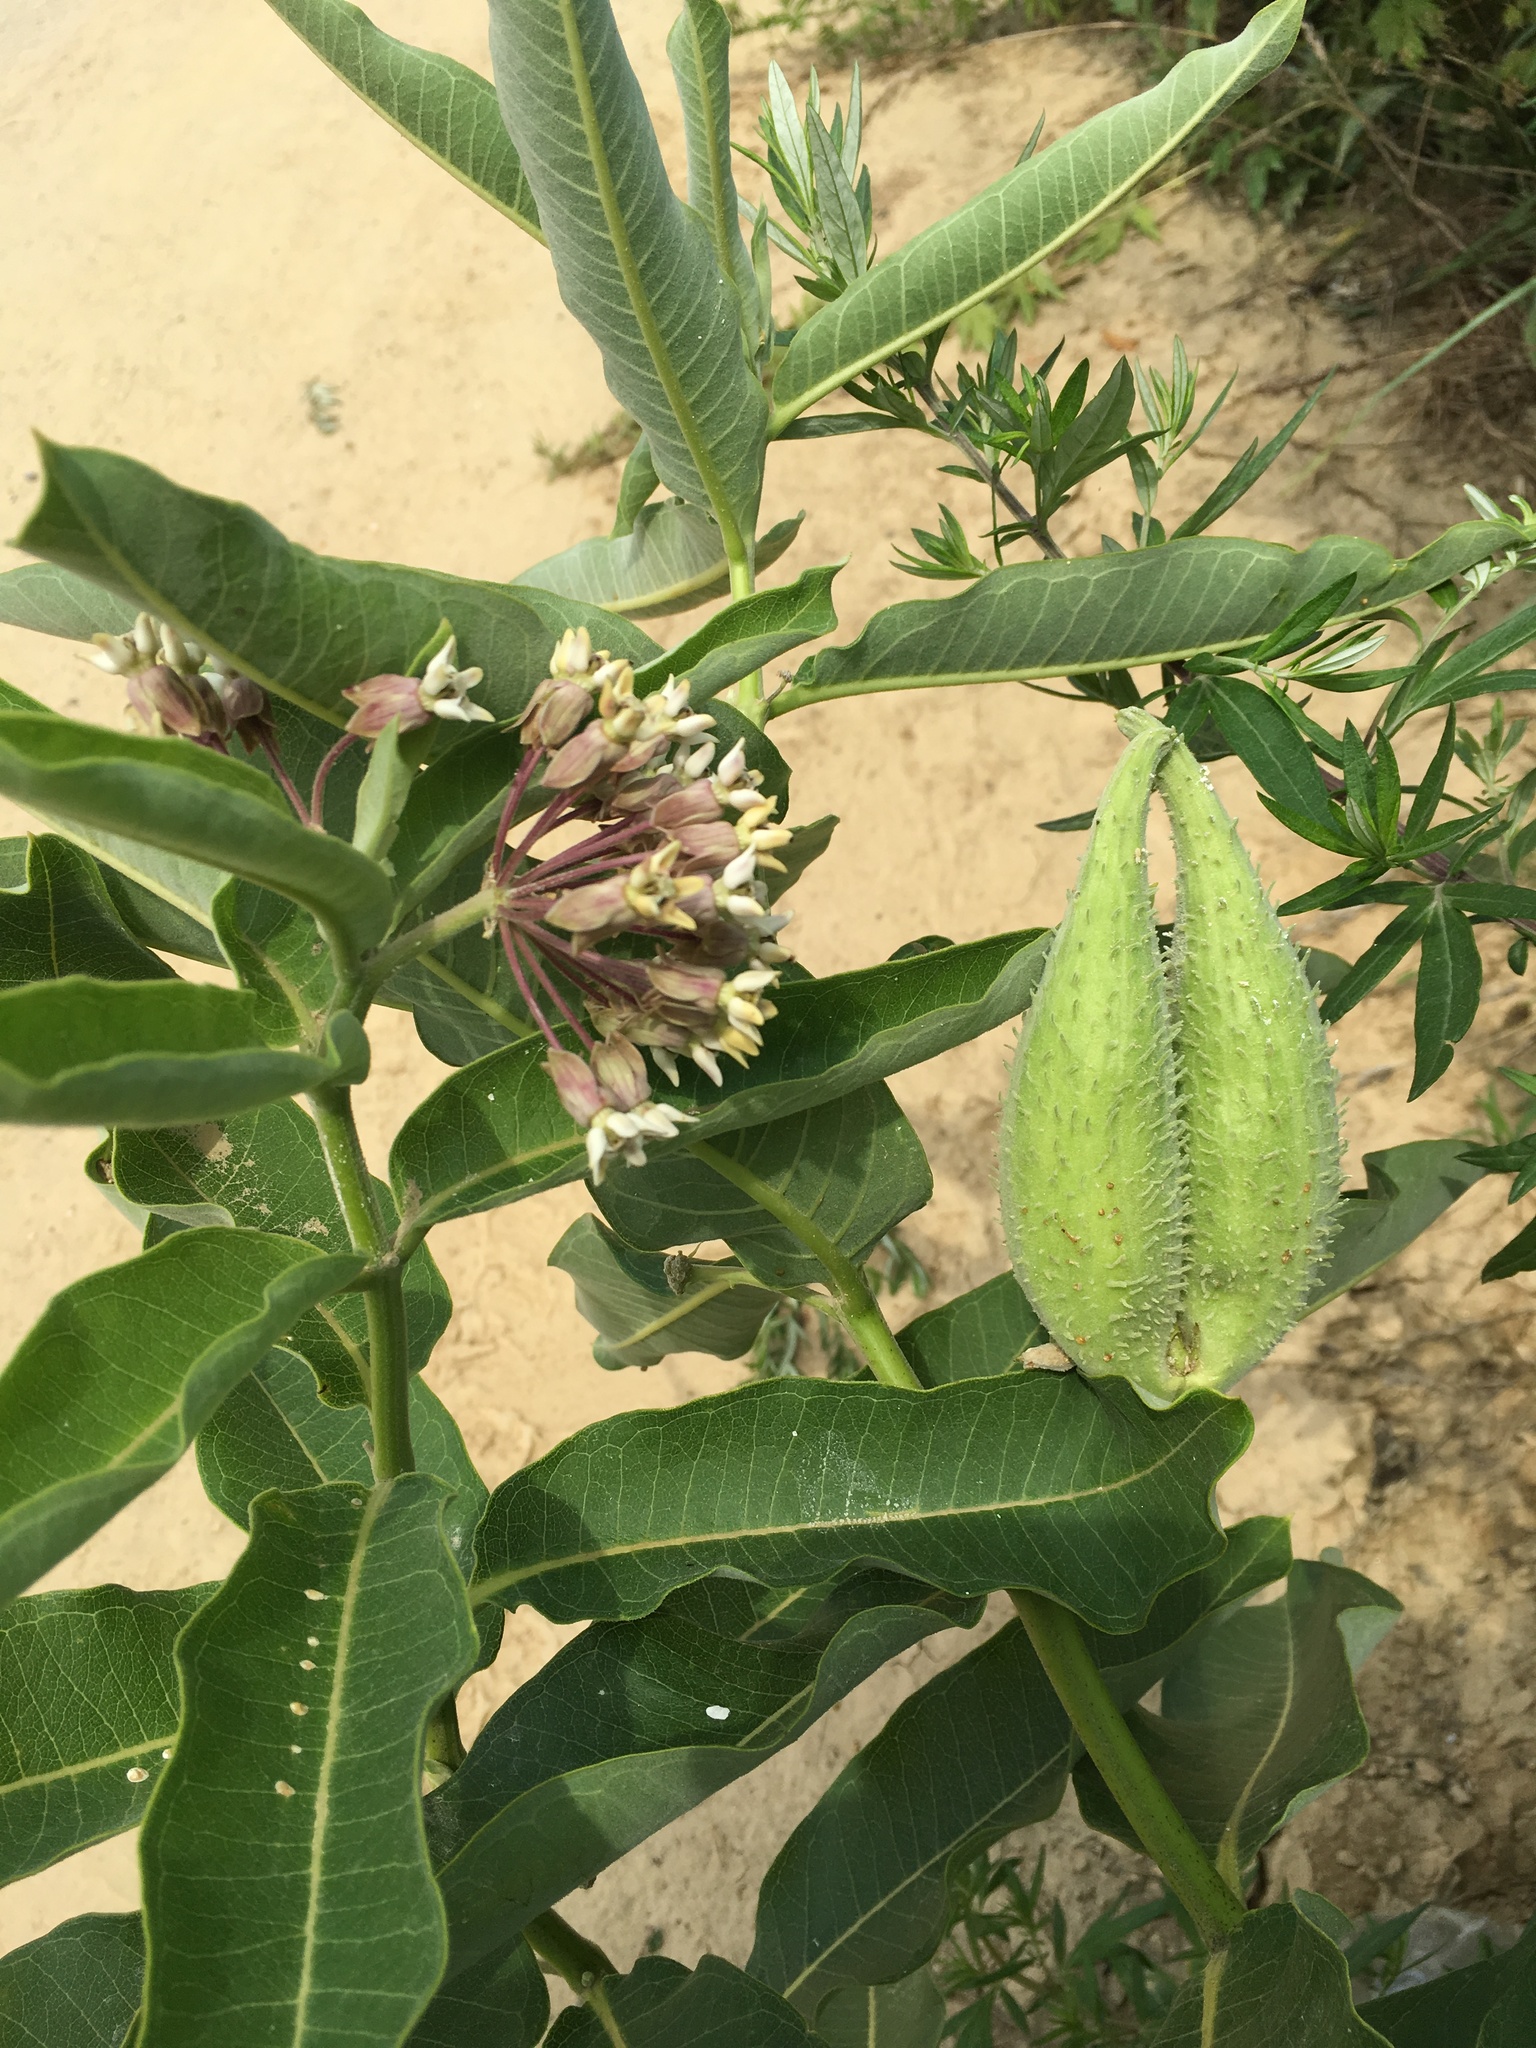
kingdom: Plantae
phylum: Tracheophyta
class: Magnoliopsida
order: Gentianales
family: Apocynaceae
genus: Asclepias
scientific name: Asclepias syriaca
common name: Common milkweed
